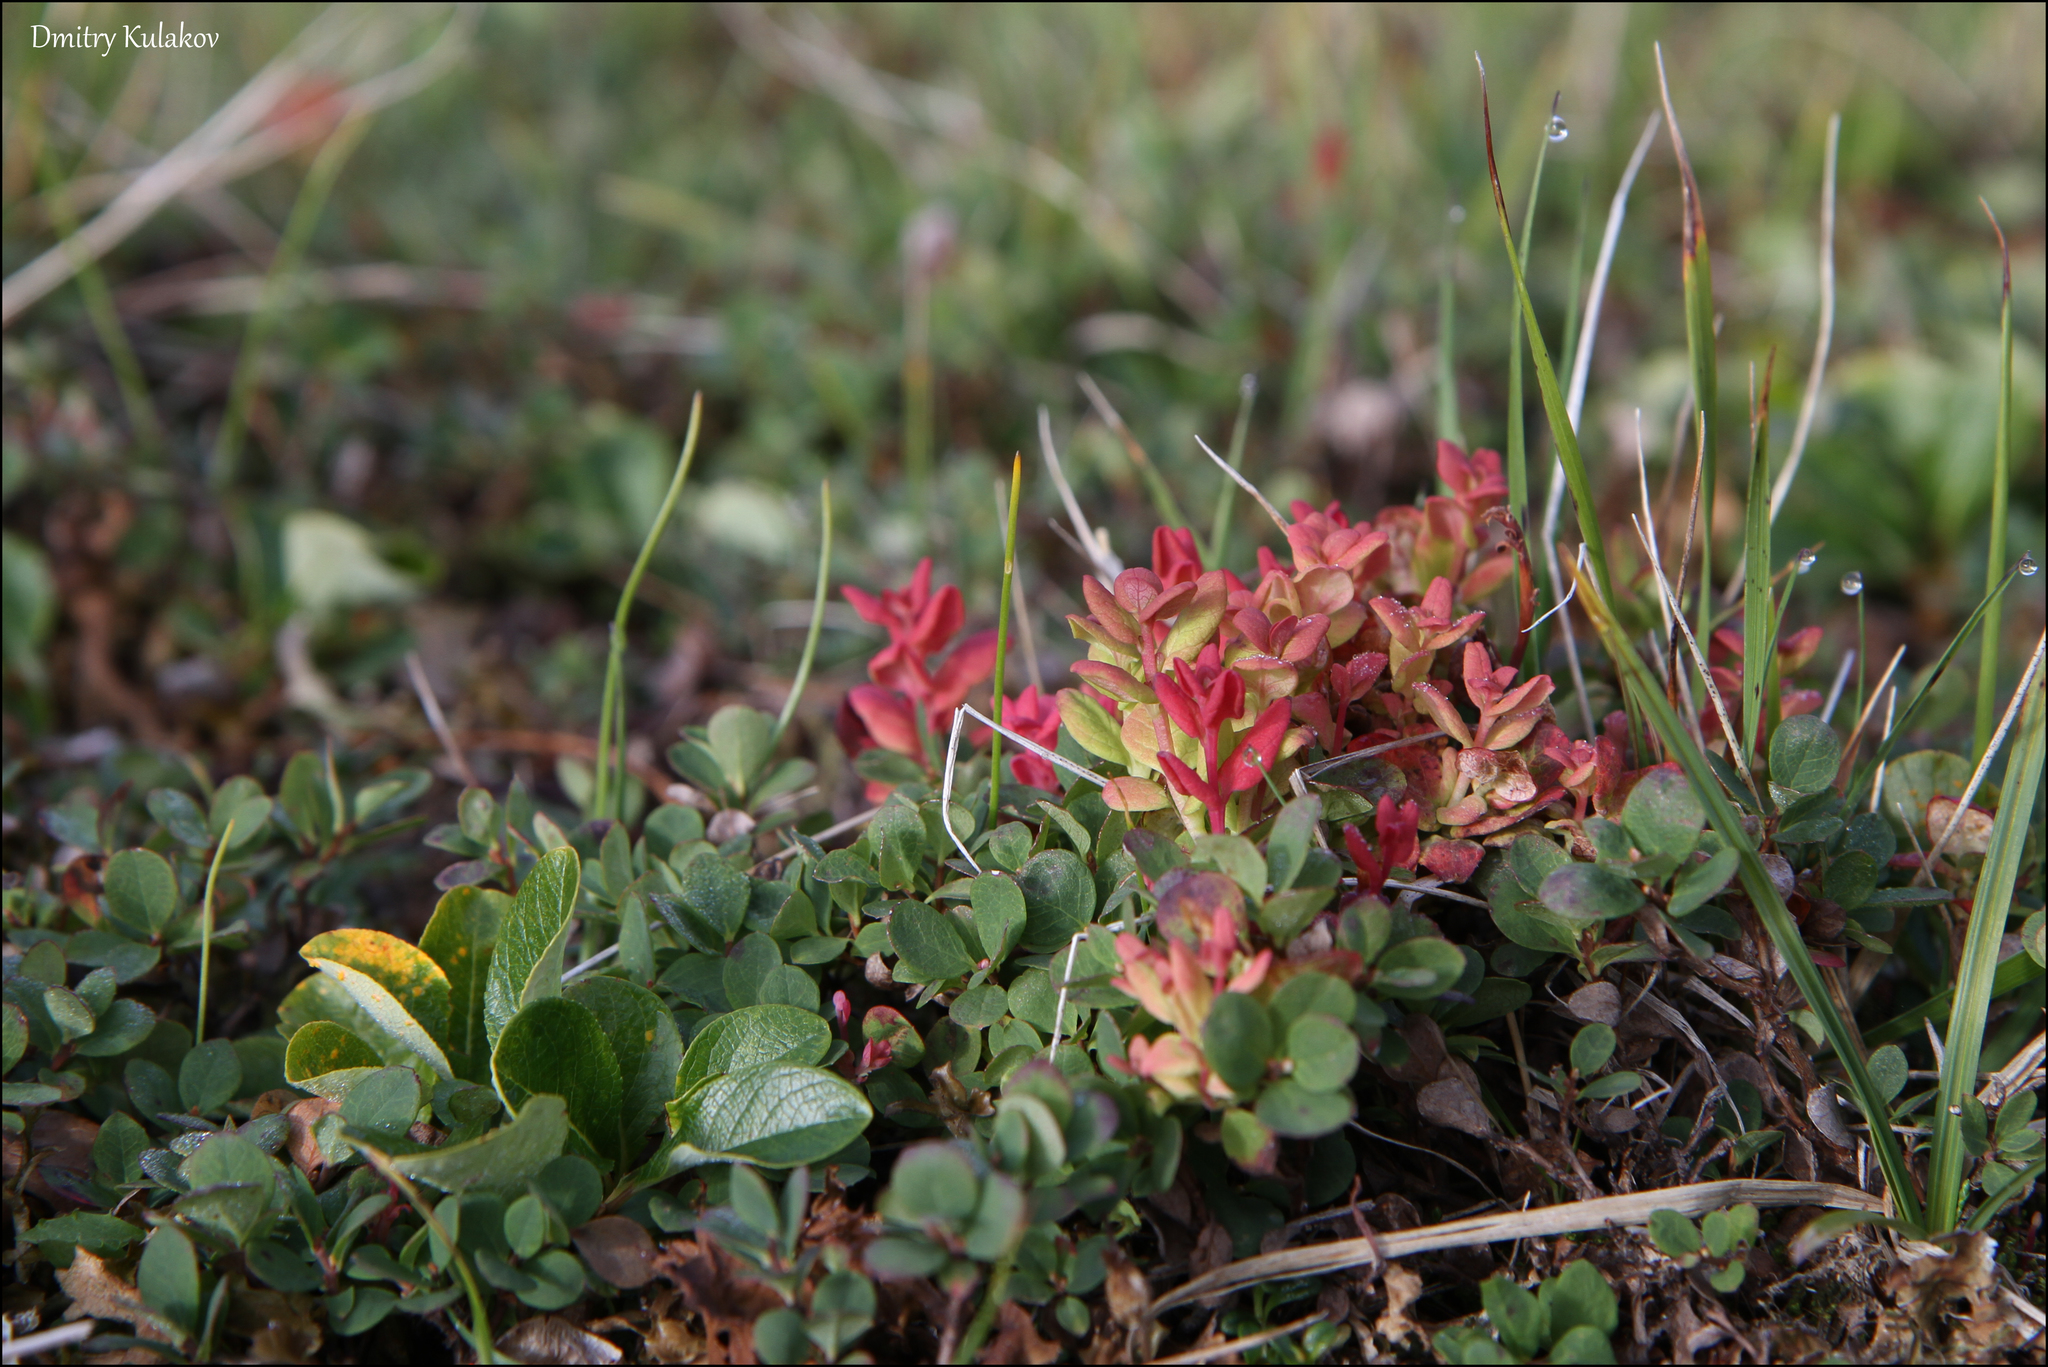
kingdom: Plantae
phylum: Tracheophyta
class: Magnoliopsida
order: Ericales
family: Ericaceae
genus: Vaccinium
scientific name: Vaccinium uliginosum
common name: Bog bilberry
